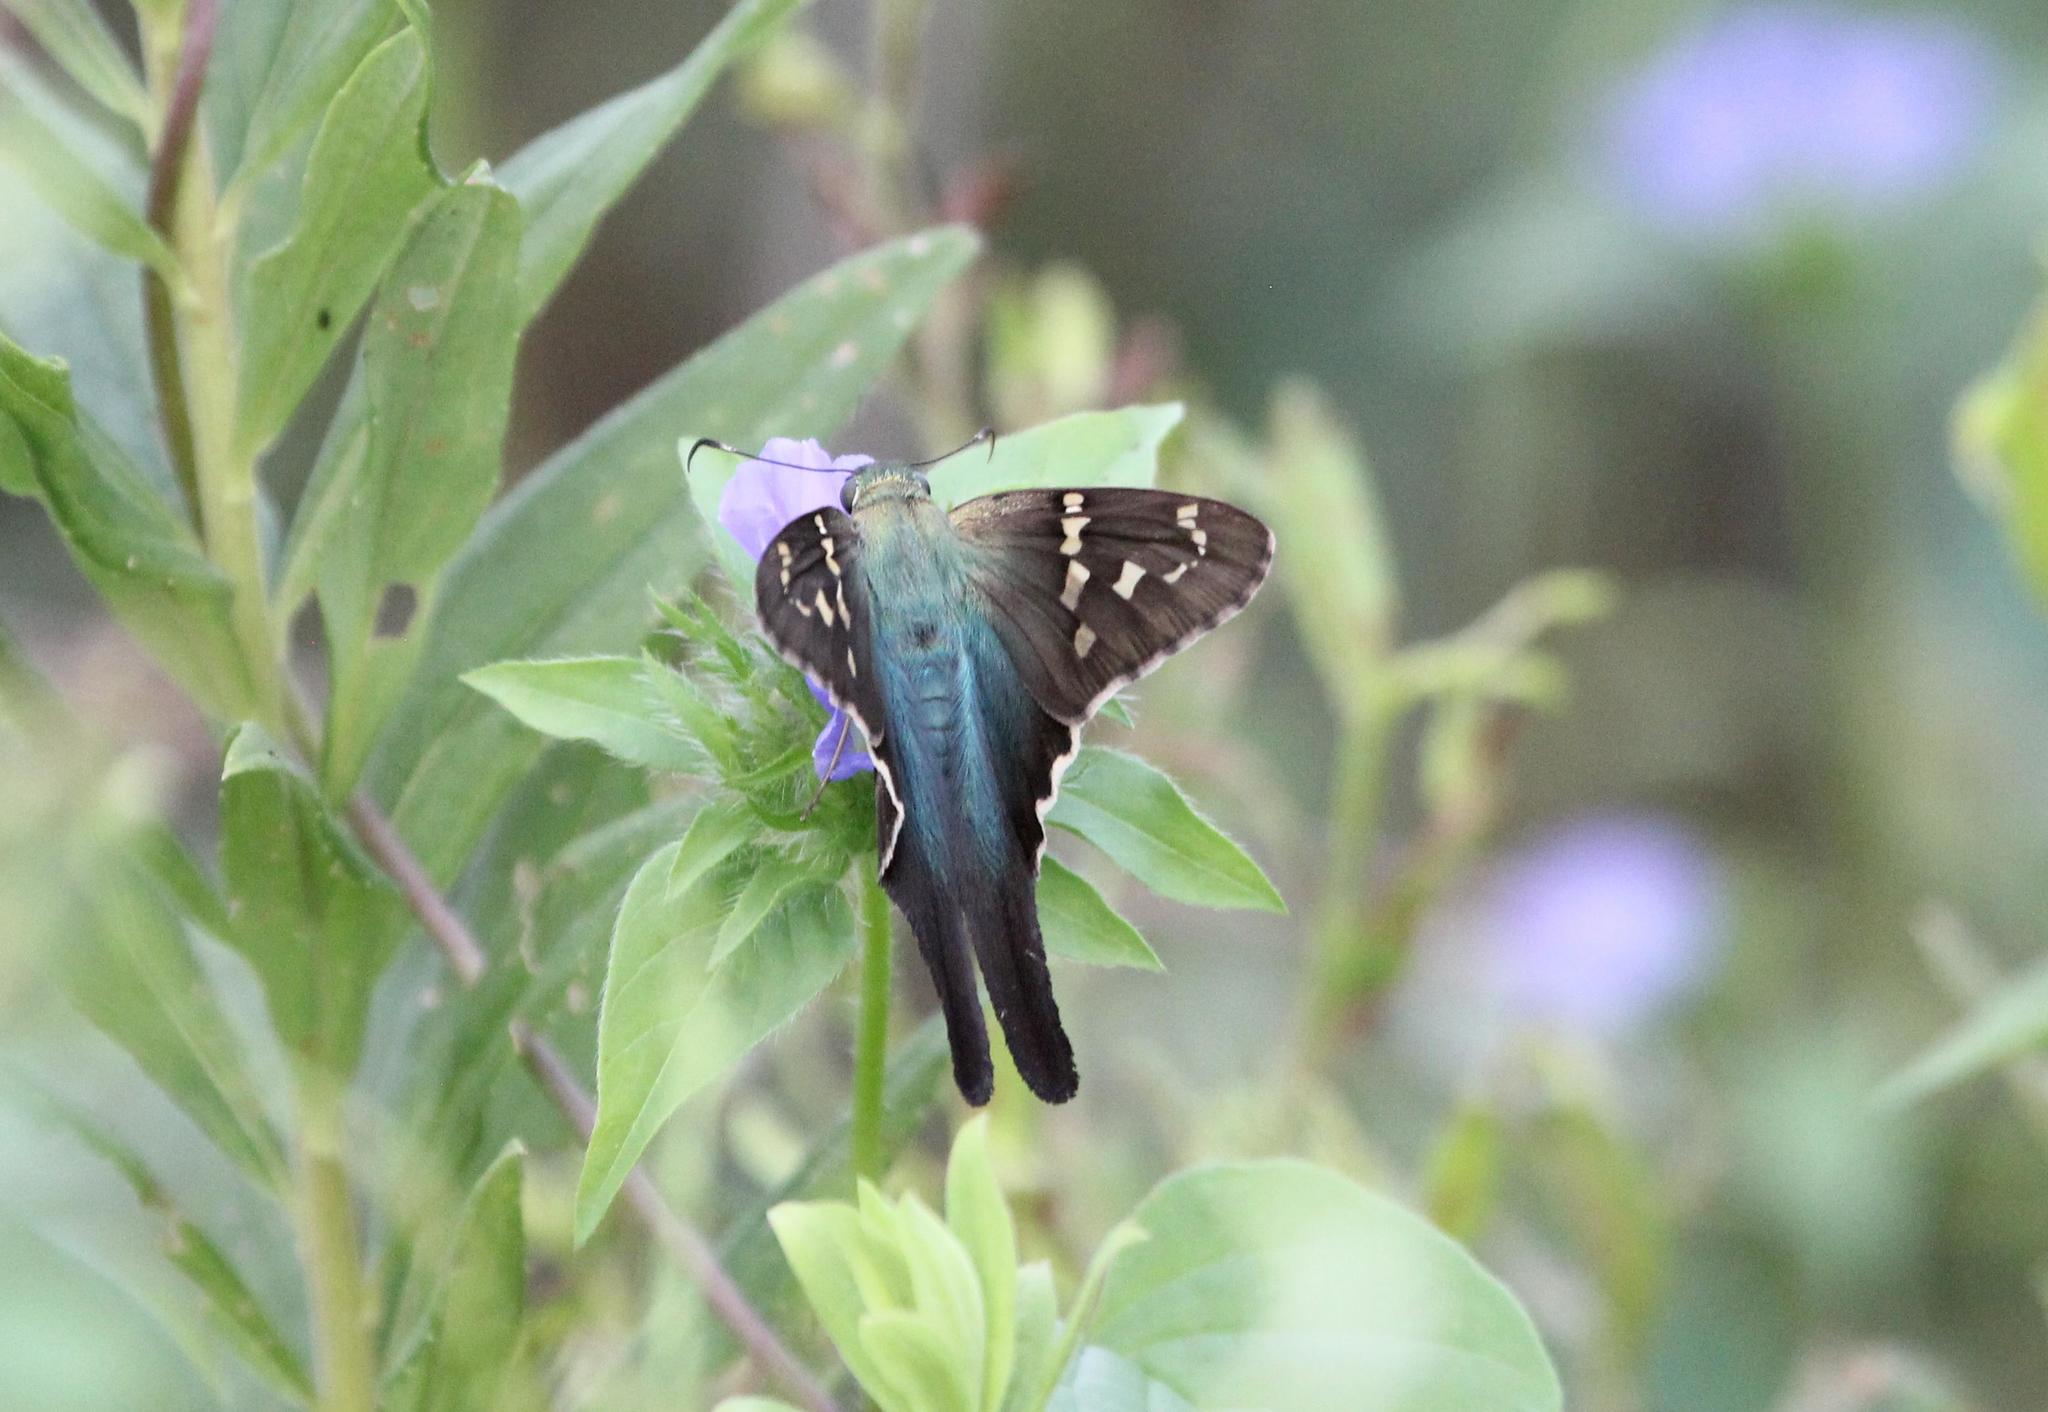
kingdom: Animalia
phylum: Arthropoda
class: Insecta
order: Lepidoptera
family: Hesperiidae
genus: Urbanus
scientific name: Urbanus proteus
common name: Long-tailed skipper
